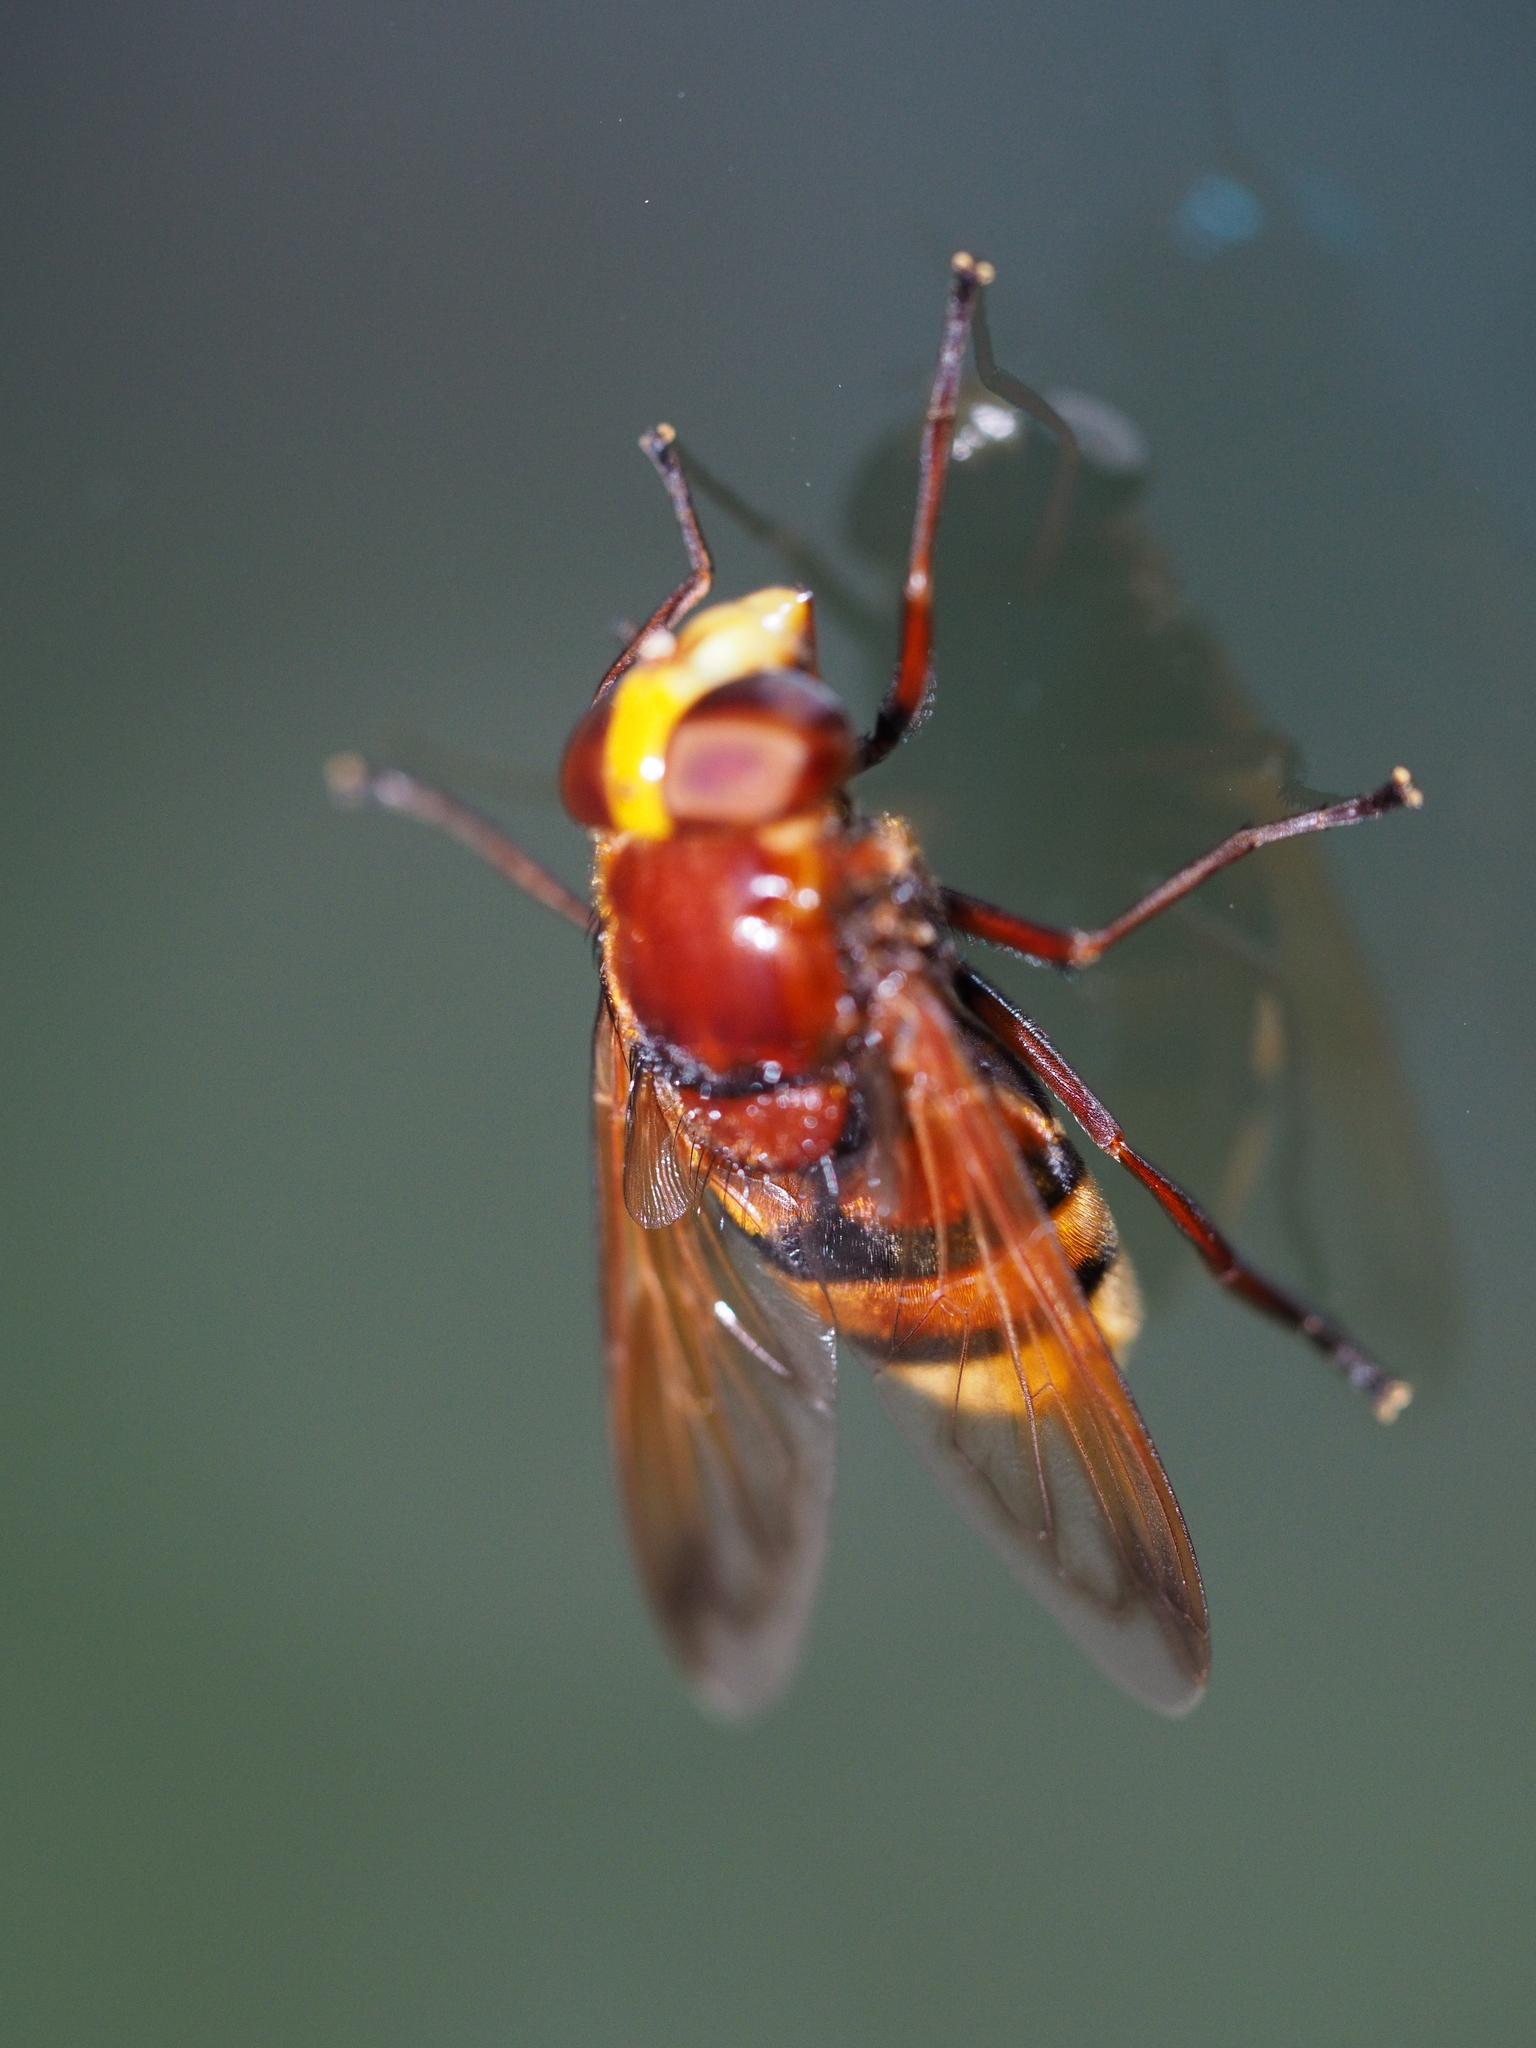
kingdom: Animalia
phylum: Arthropoda
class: Insecta
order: Diptera
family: Syrphidae
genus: Volucella
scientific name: Volucella zonaria
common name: Hornet hoverfly
